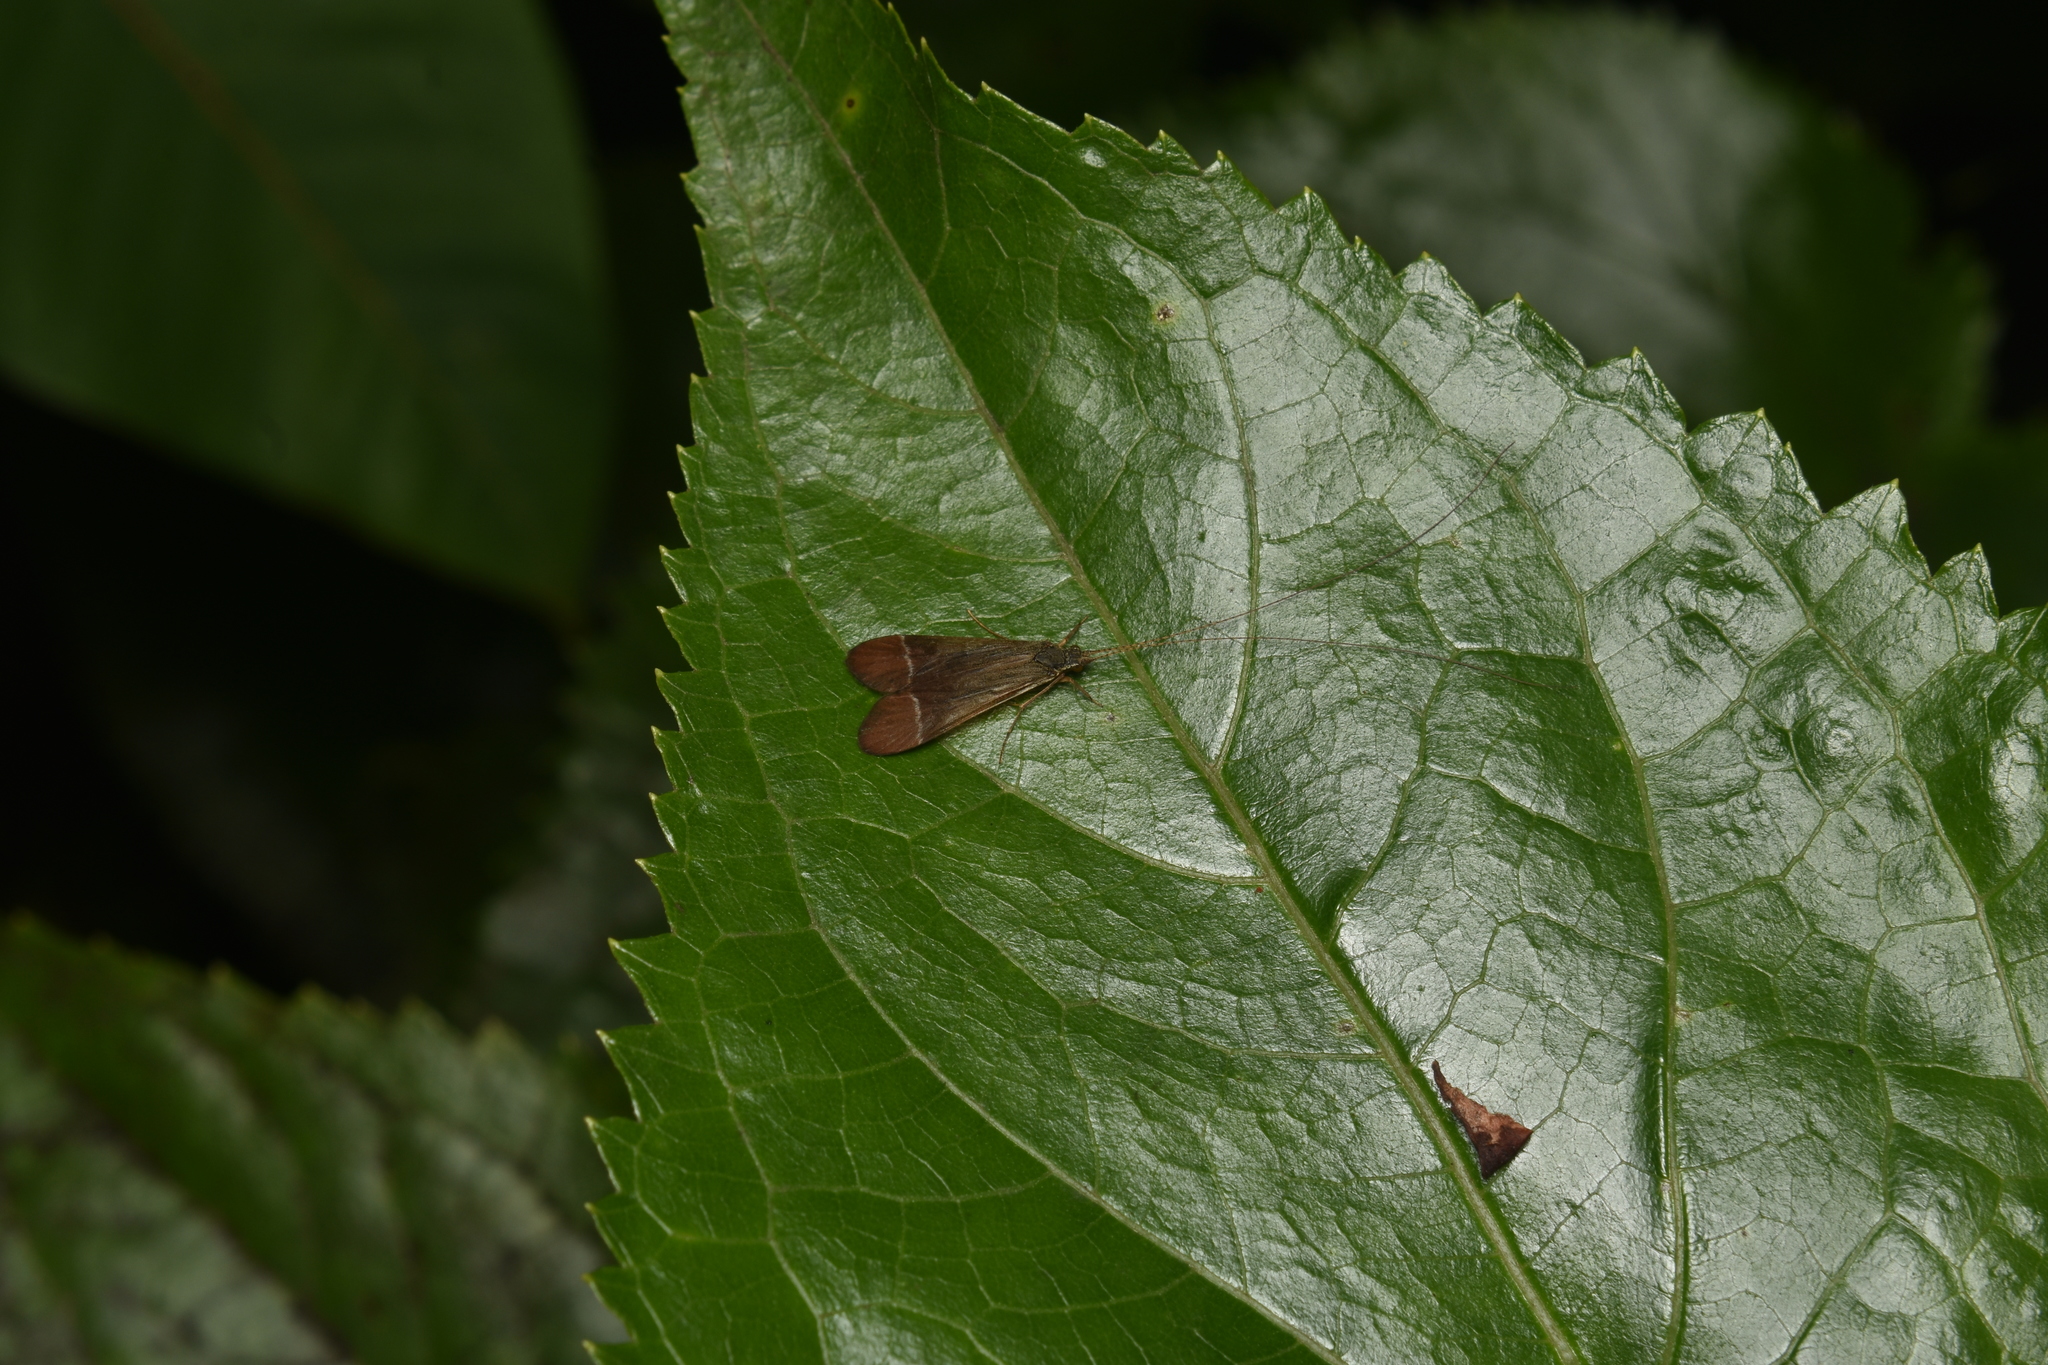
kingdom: Animalia
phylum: Arthropoda
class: Insecta
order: Trichoptera
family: Hydropsychidae
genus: Macronema
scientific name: Macronema
